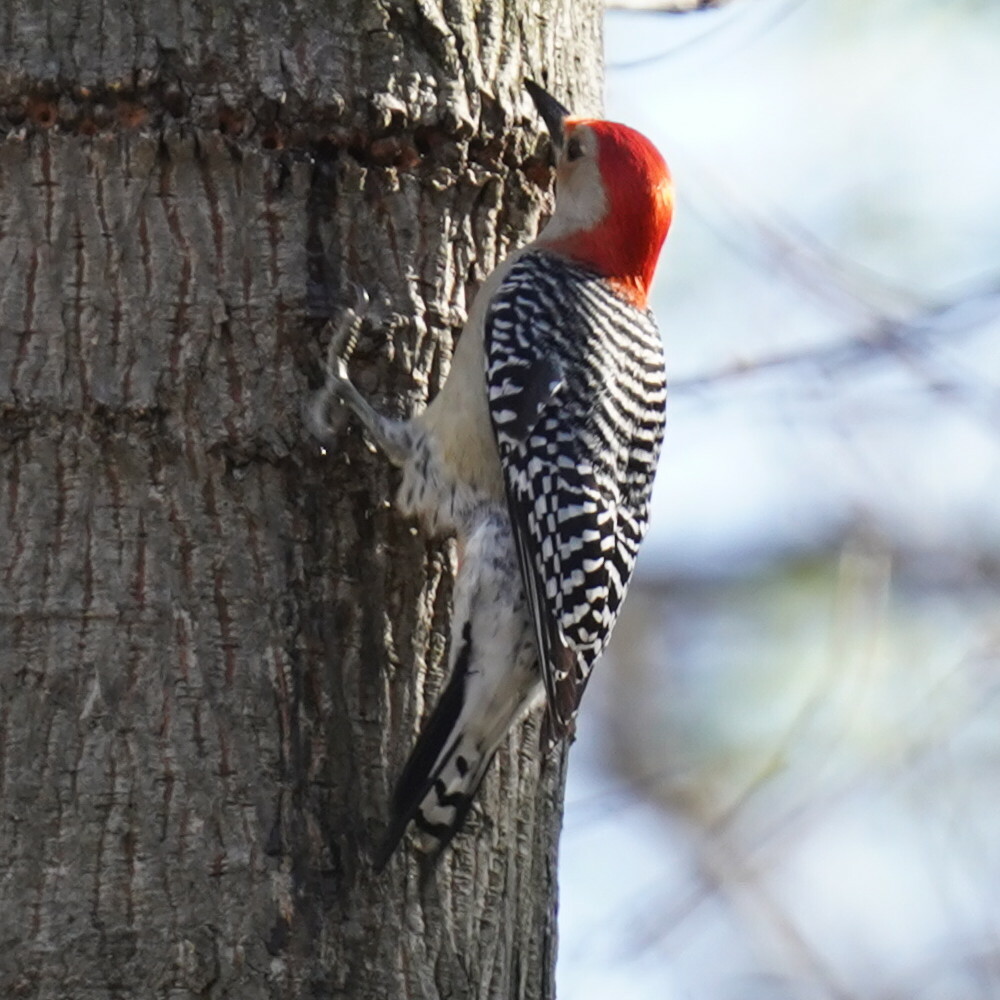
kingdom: Animalia
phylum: Chordata
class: Aves
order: Piciformes
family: Picidae
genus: Melanerpes
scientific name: Melanerpes carolinus
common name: Red-bellied woodpecker
